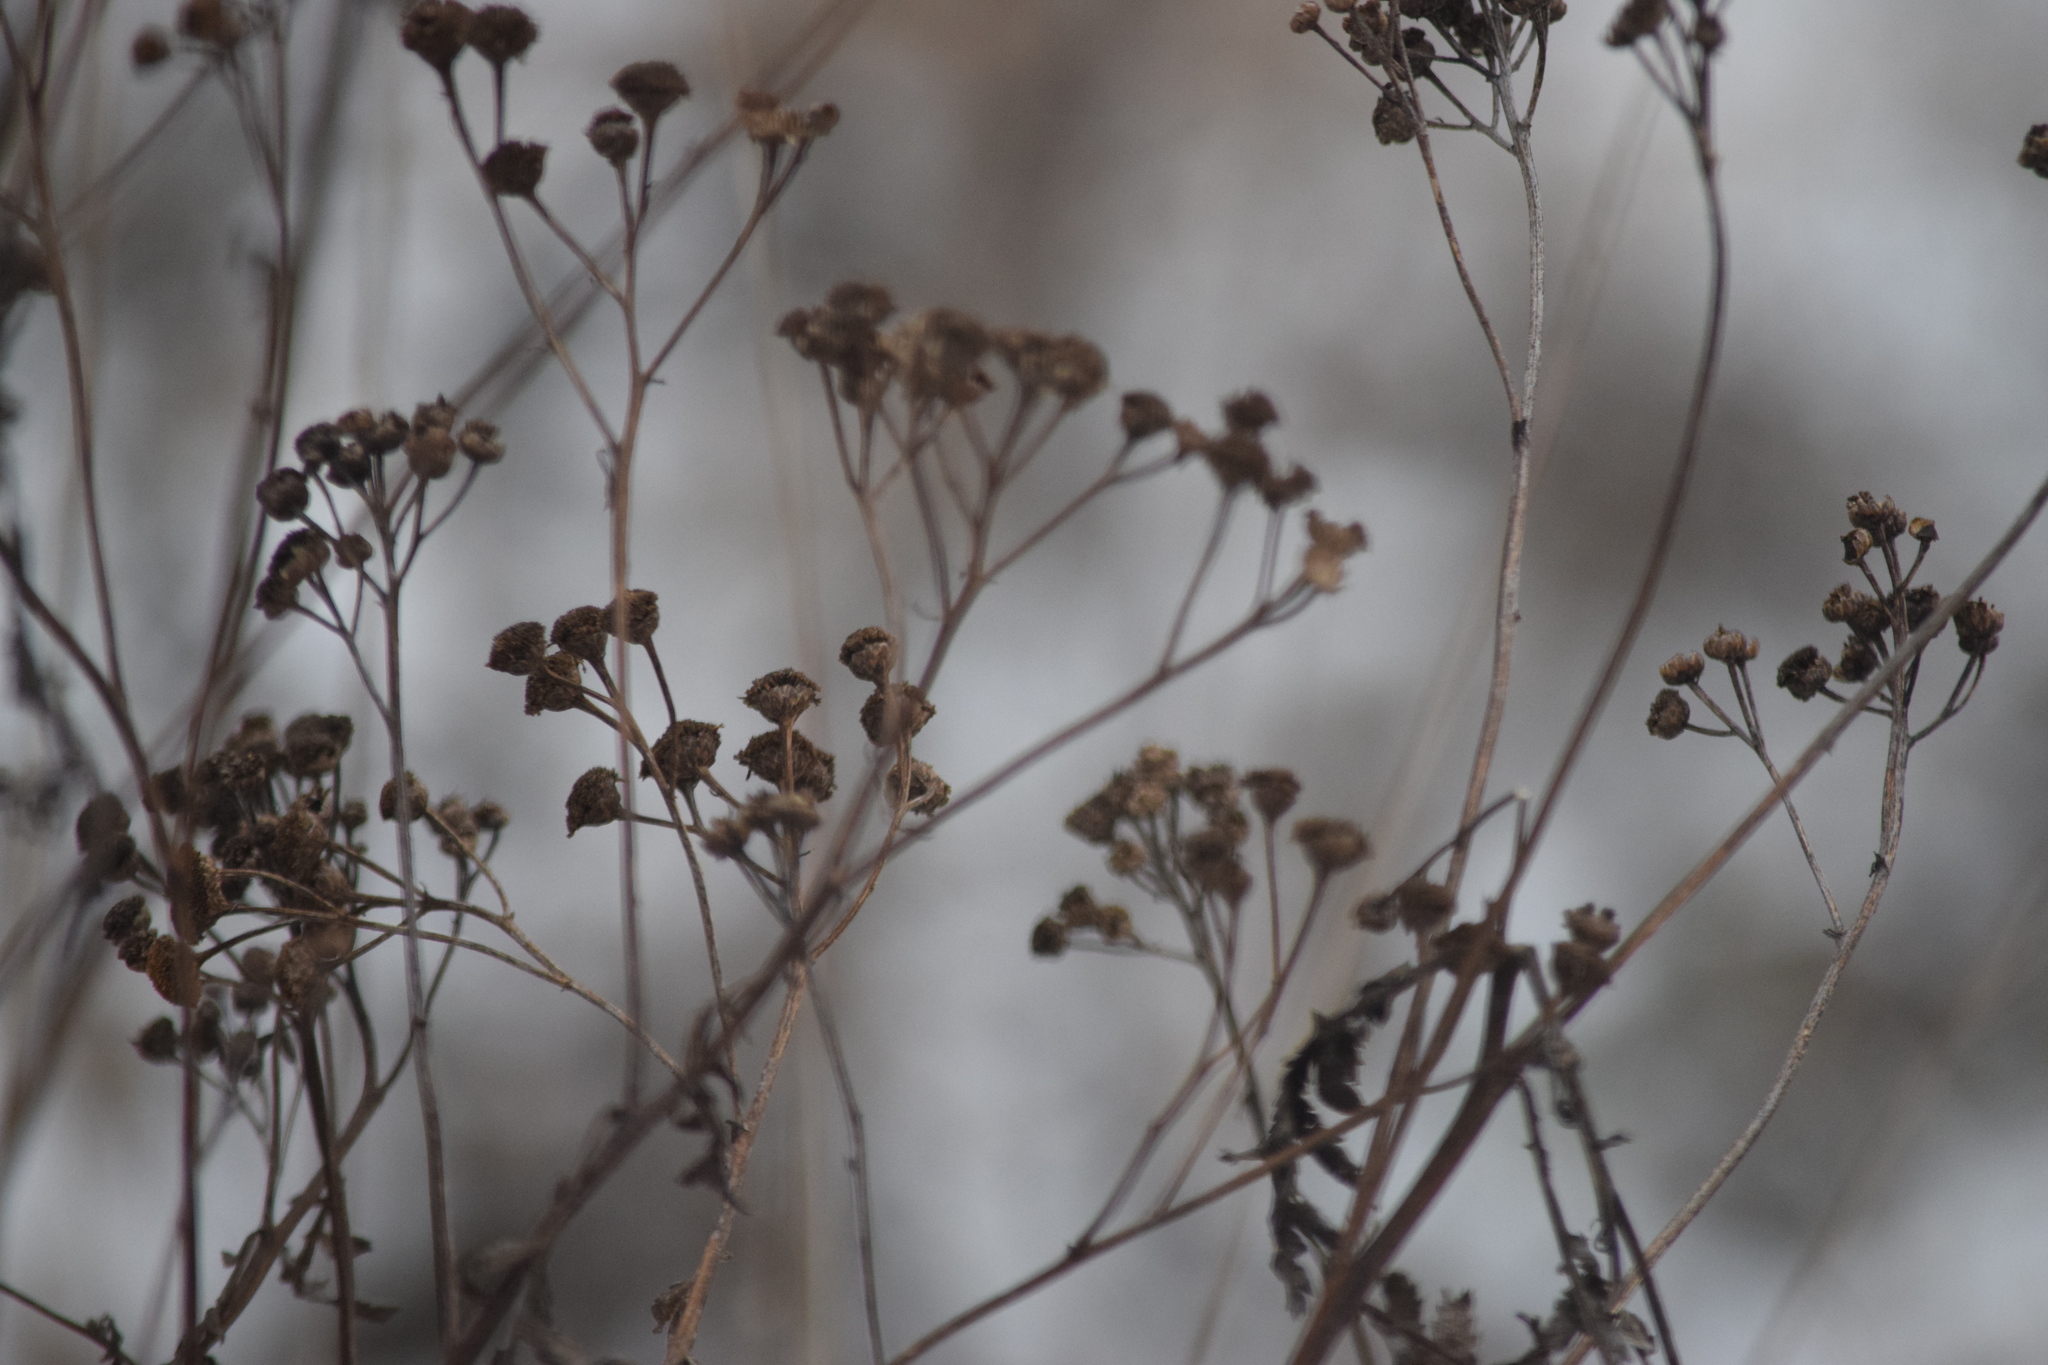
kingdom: Plantae
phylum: Tracheophyta
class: Magnoliopsida
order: Asterales
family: Asteraceae
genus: Tanacetum
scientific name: Tanacetum vulgare
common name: Common tansy
